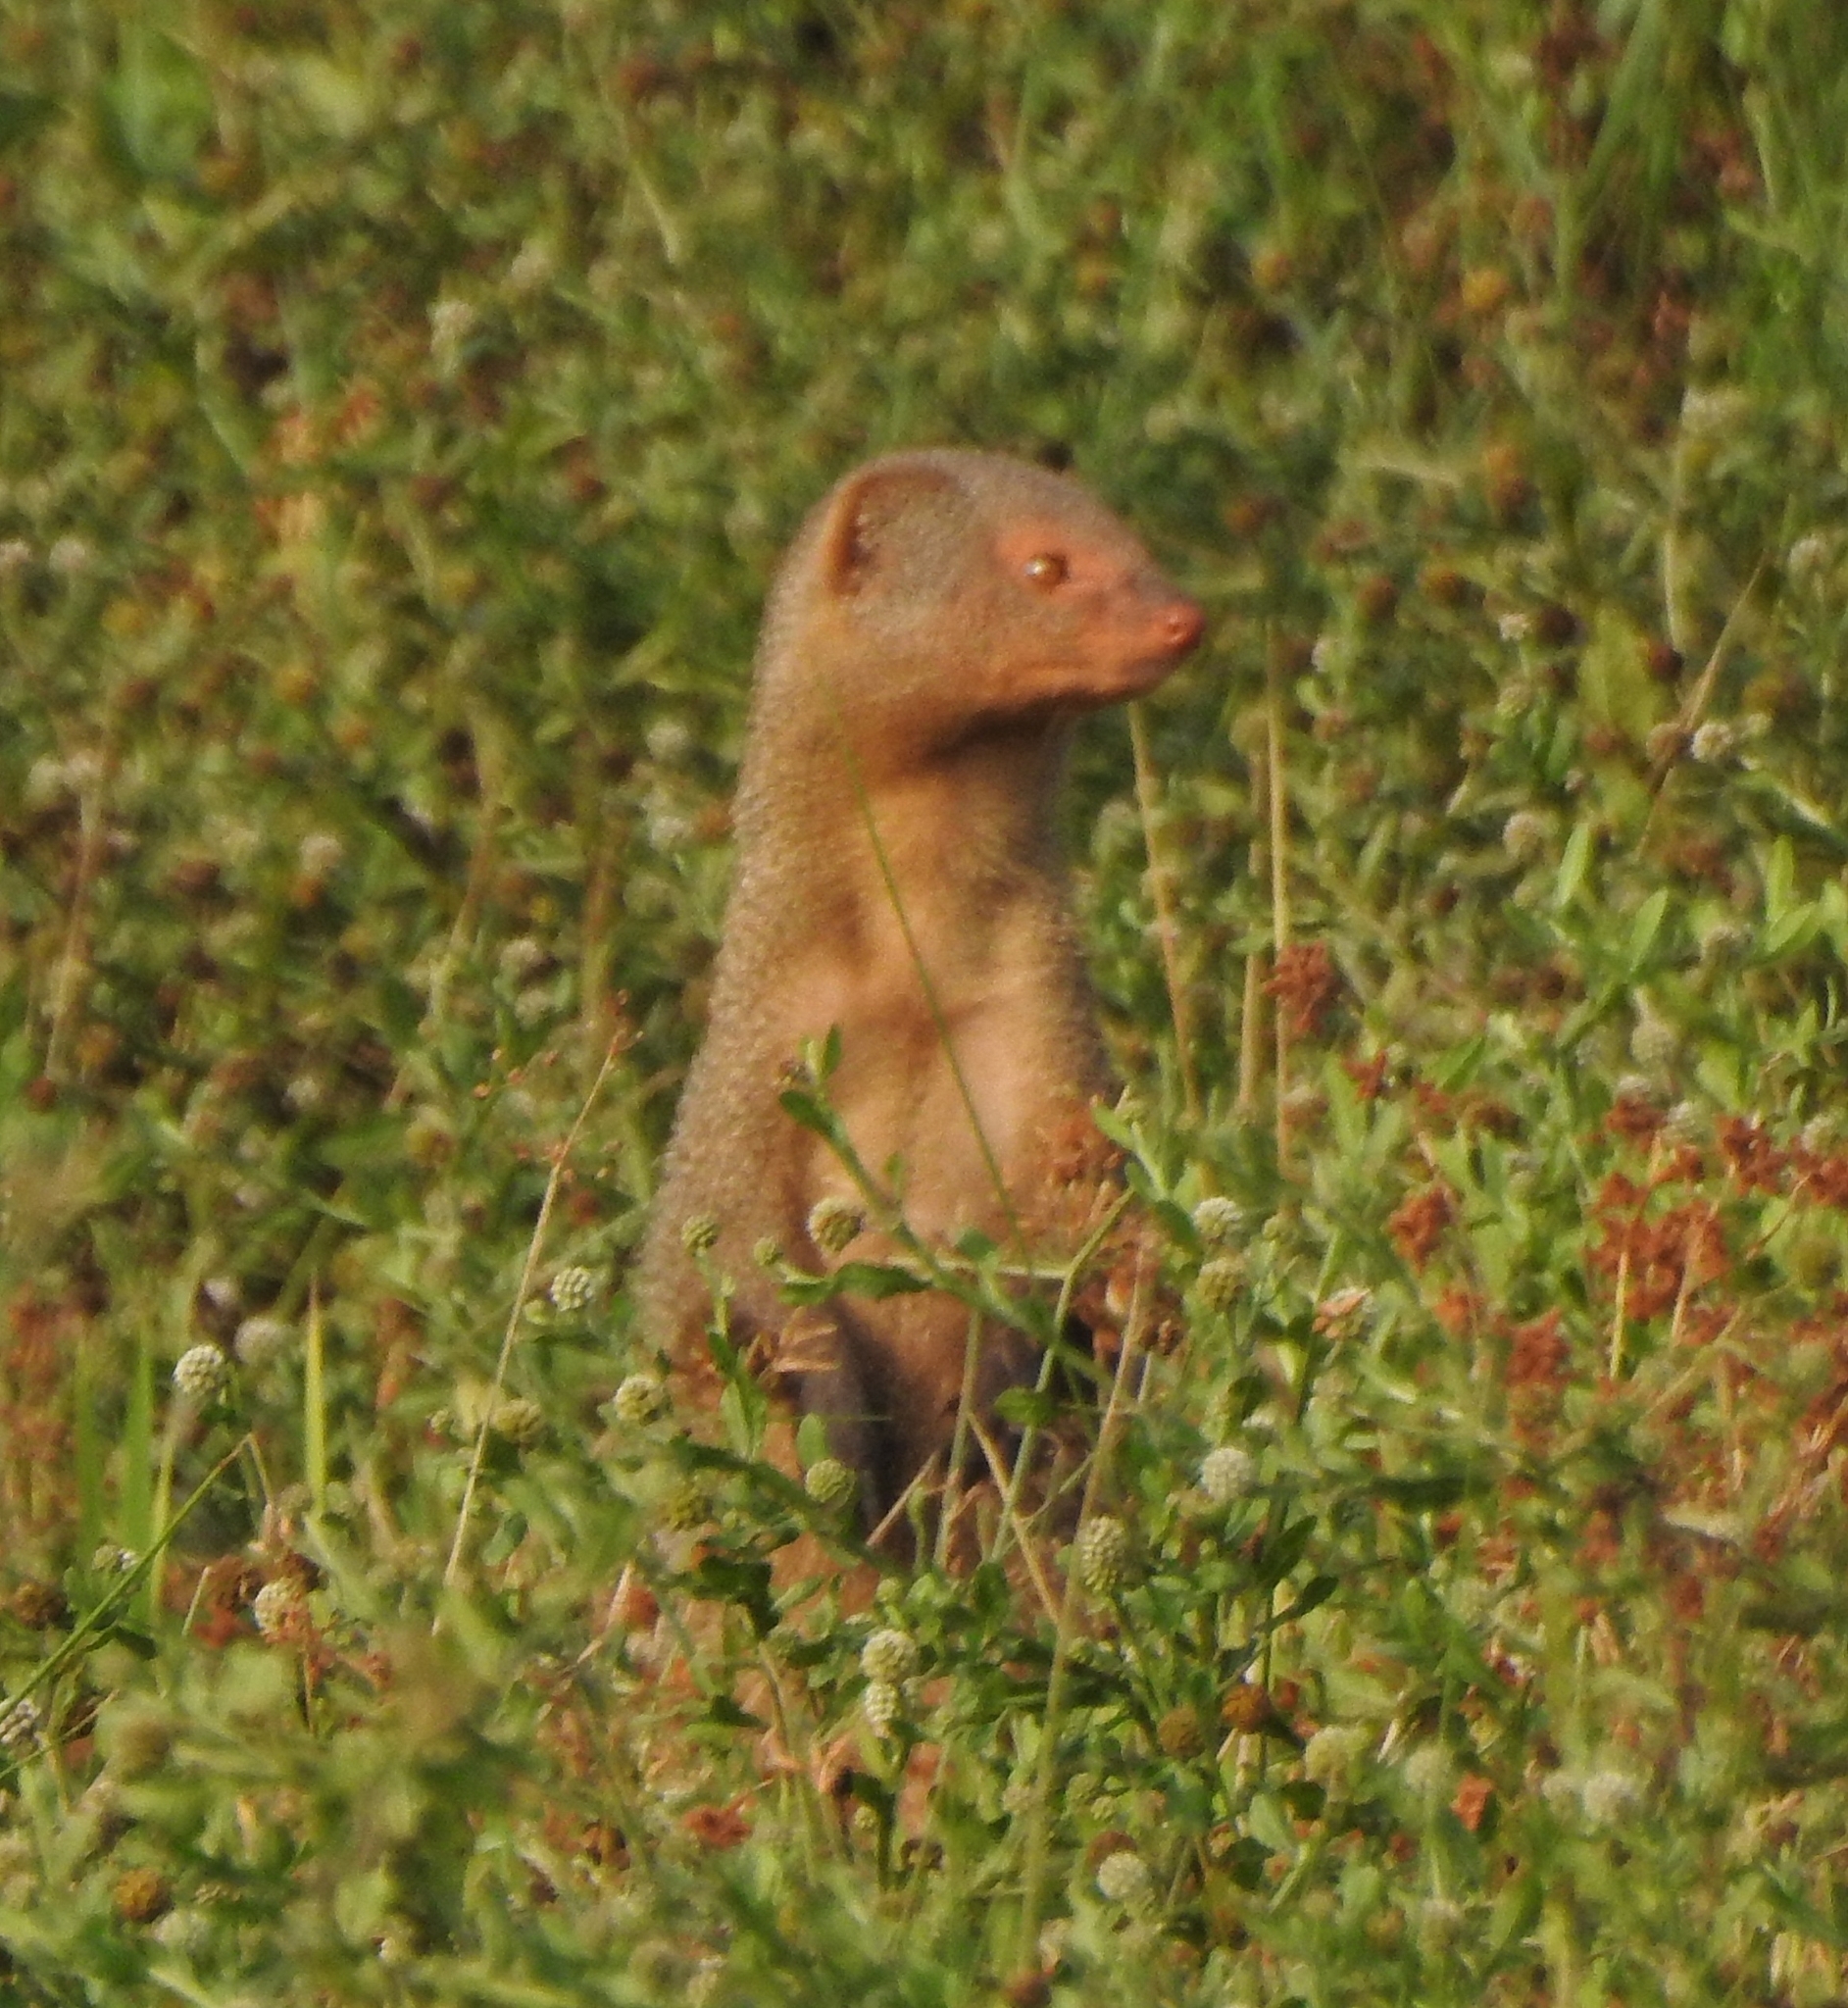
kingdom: Animalia
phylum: Chordata
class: Mammalia
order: Carnivora
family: Herpestidae
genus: Herpestes
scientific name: Herpestes edwardsi
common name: Indian gray mongoose
